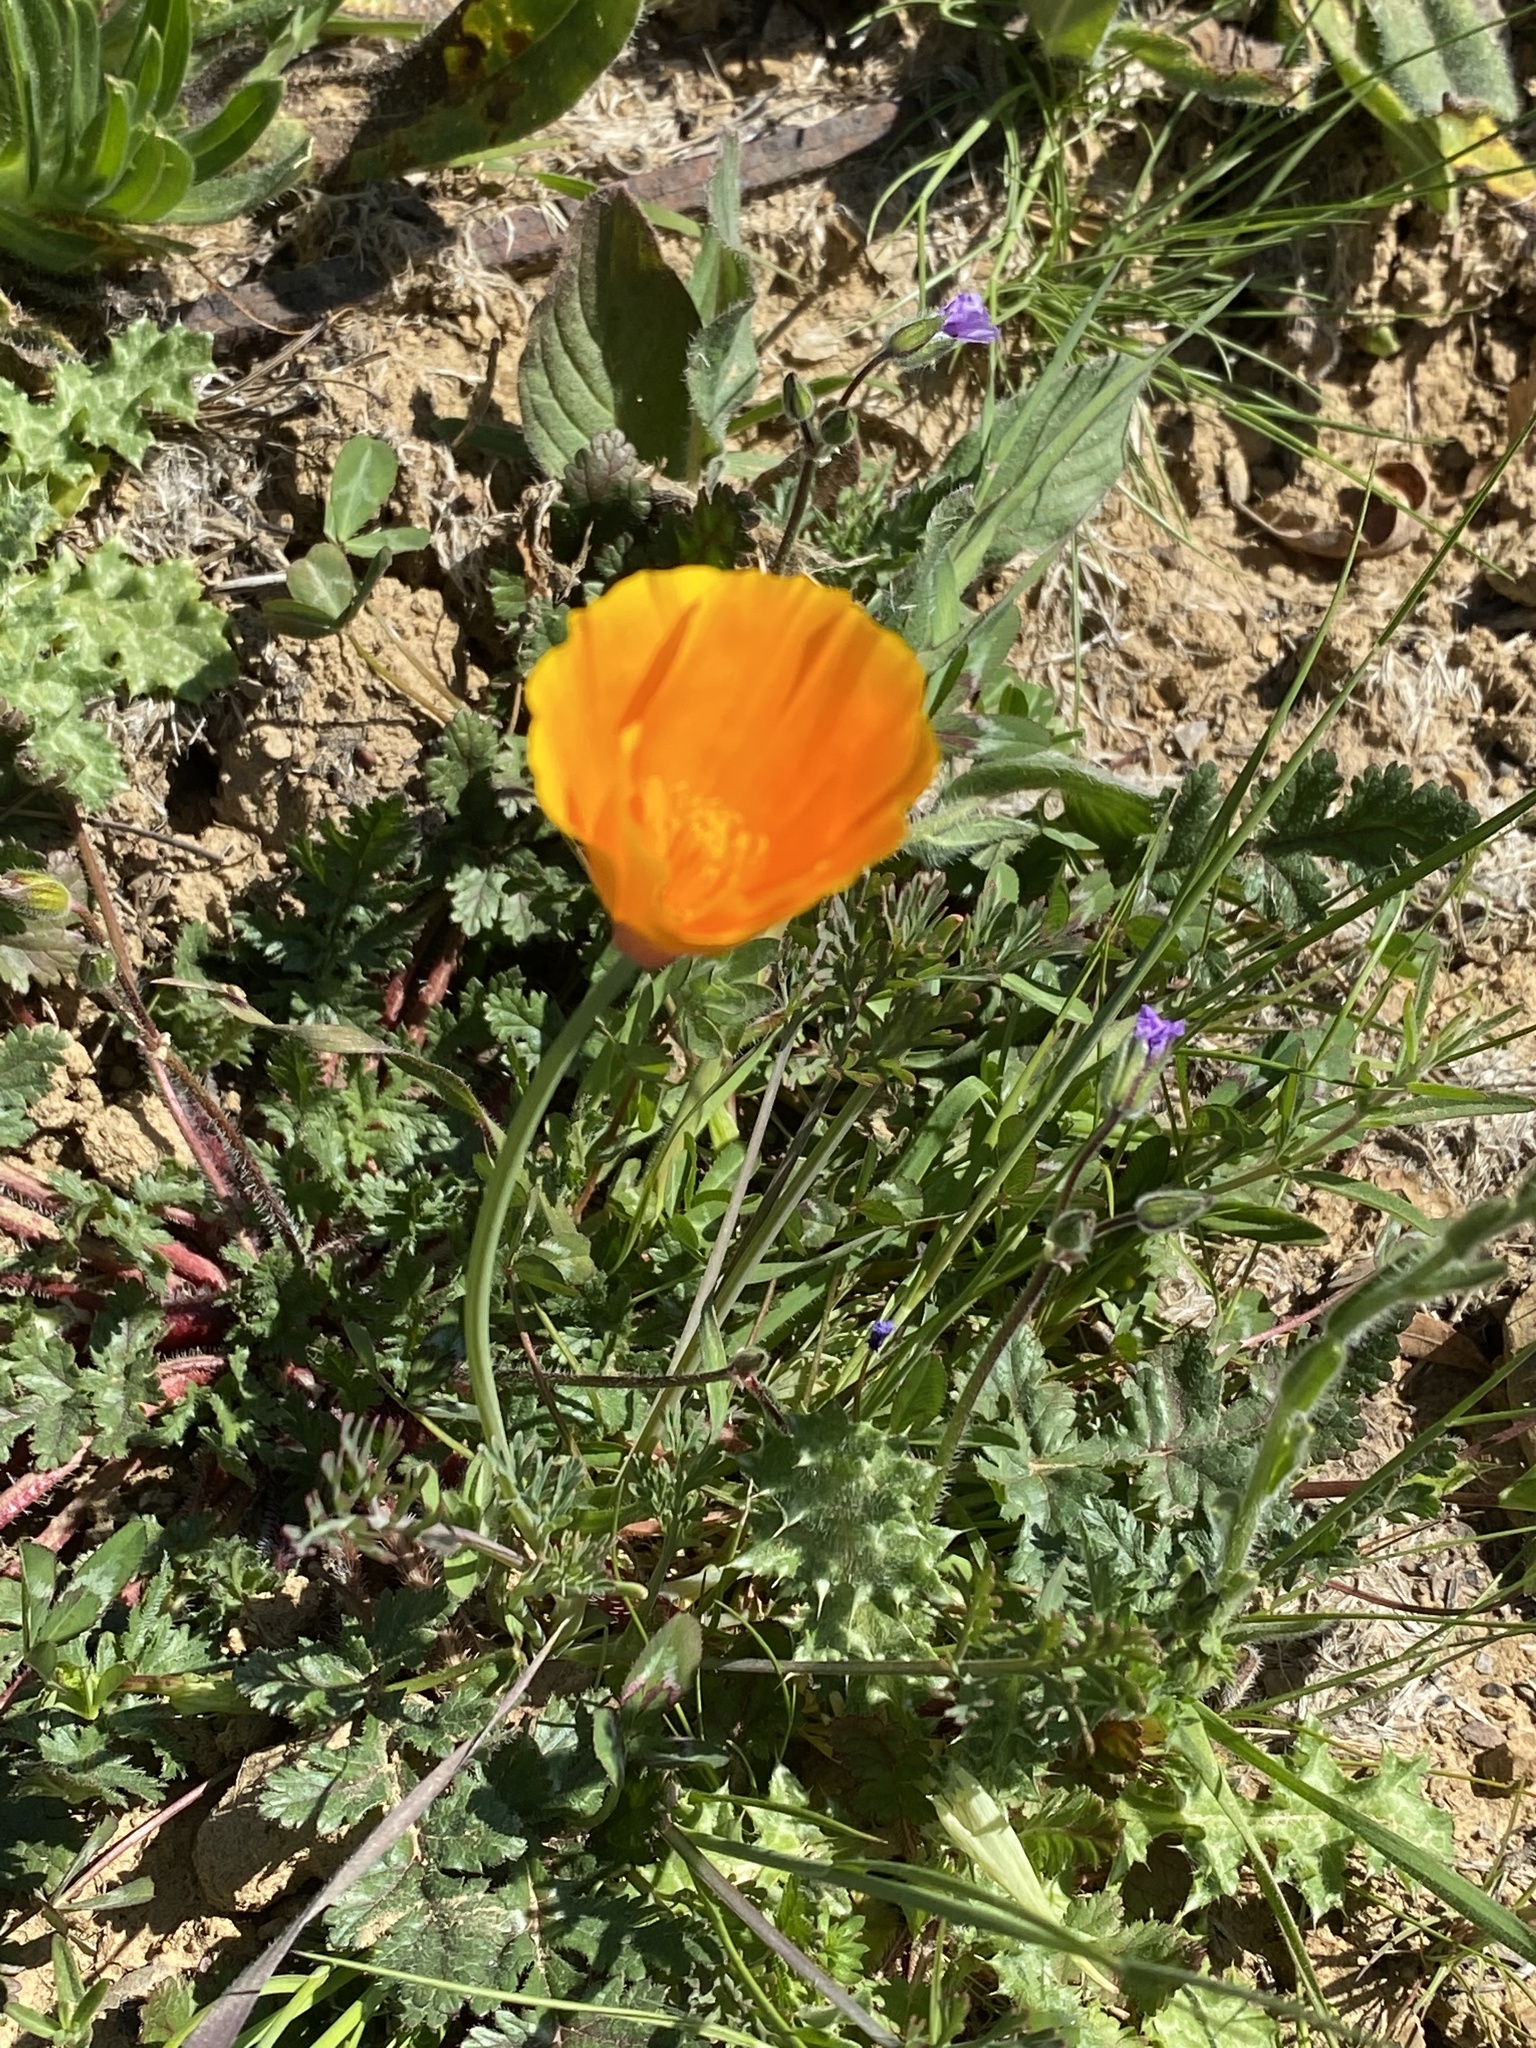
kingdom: Plantae
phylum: Tracheophyta
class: Magnoliopsida
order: Ranunculales
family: Papaveraceae
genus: Eschscholzia
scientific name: Eschscholzia californica
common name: California poppy
